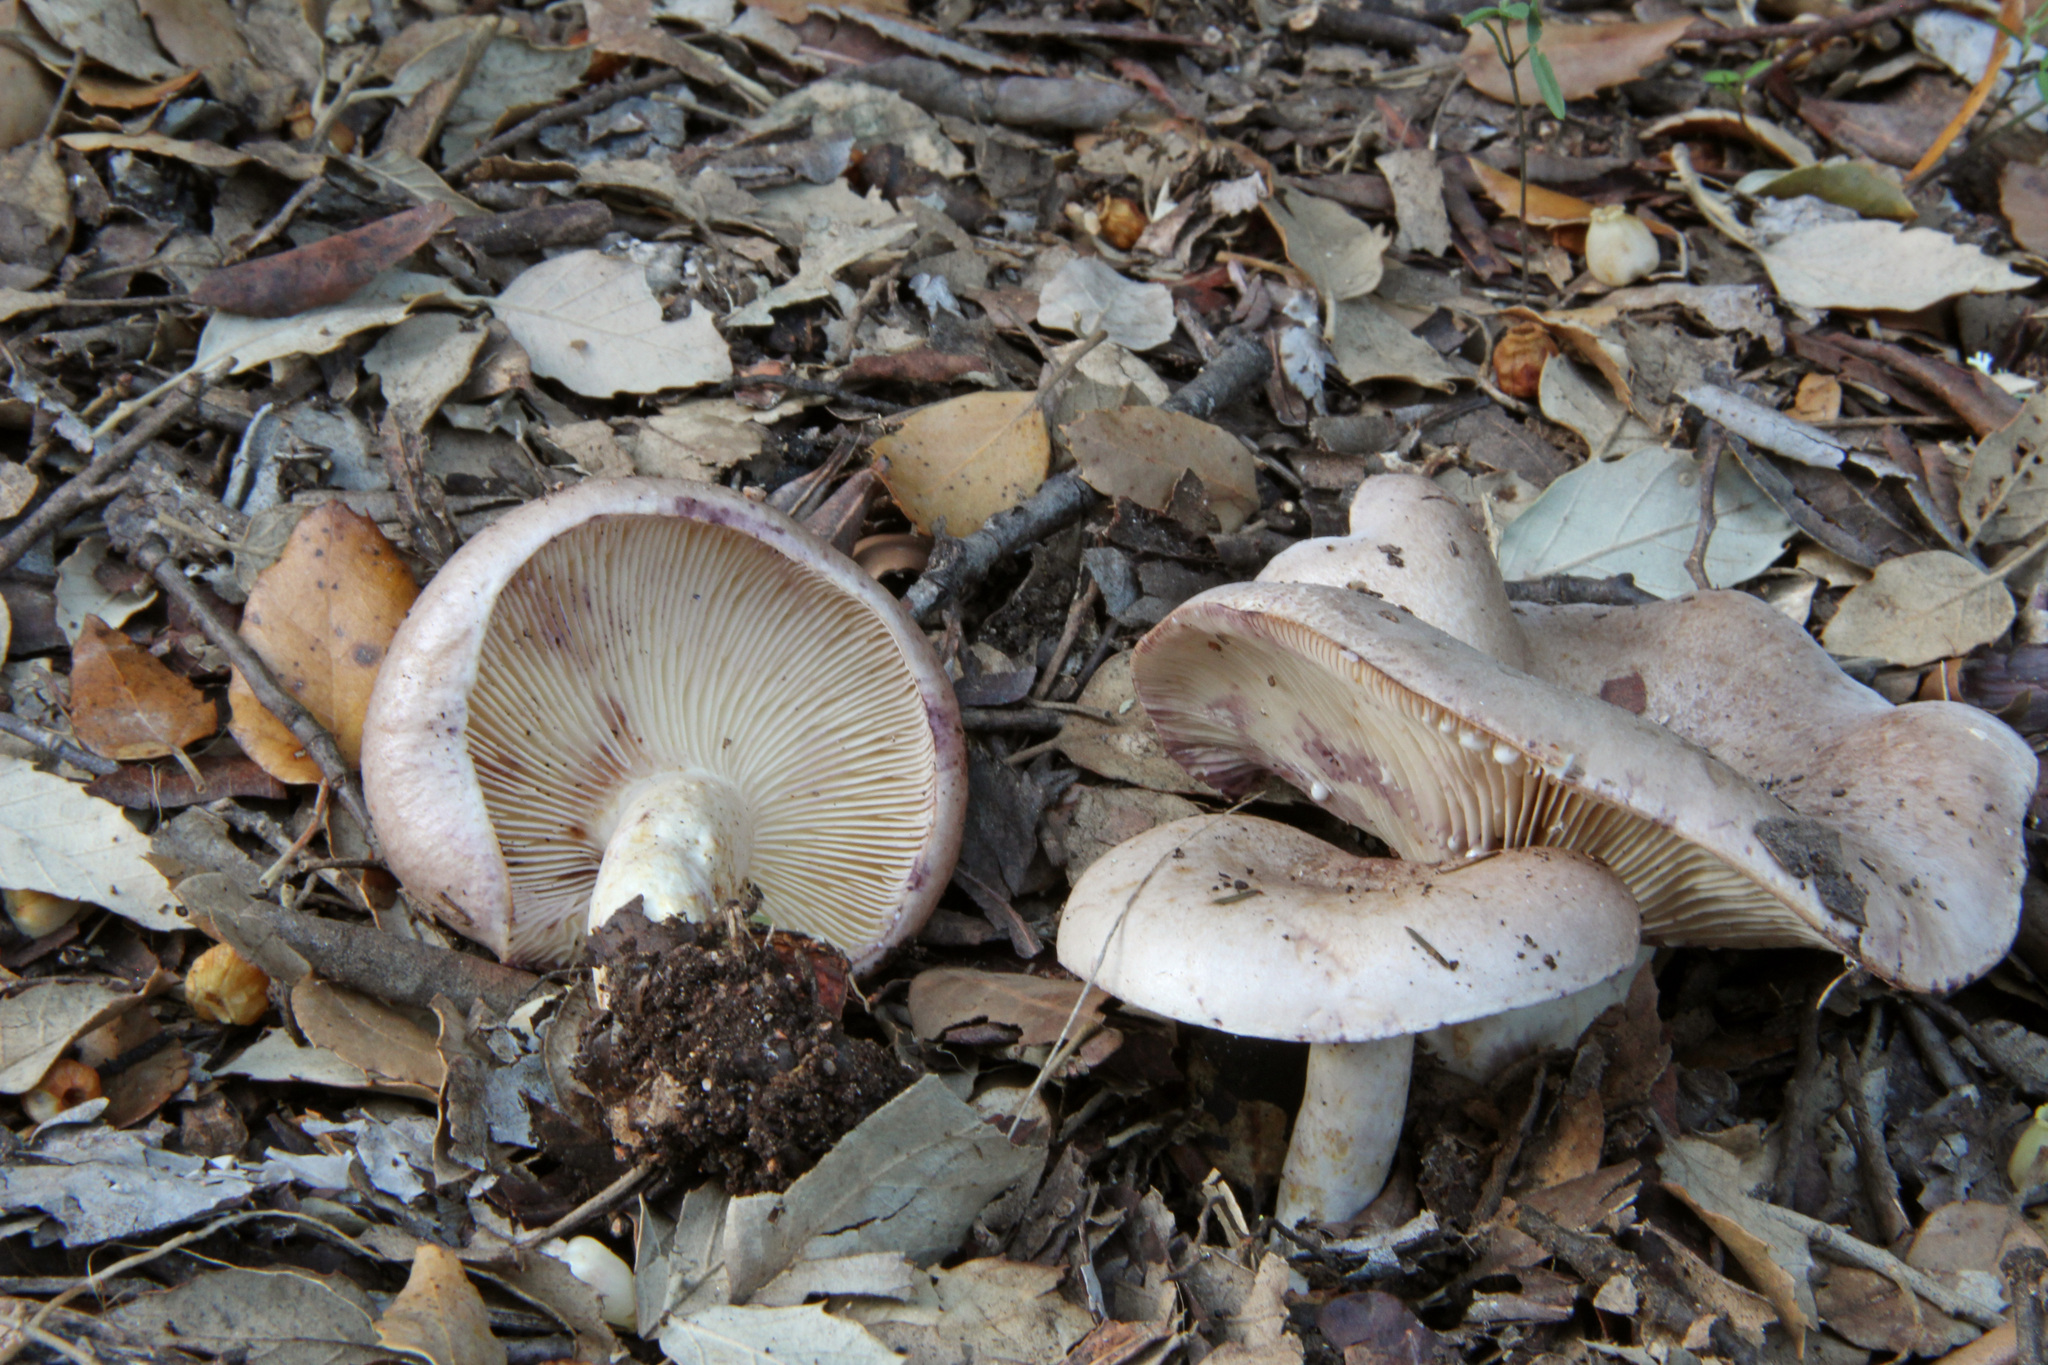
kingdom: Fungi
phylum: Basidiomycota
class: Agaricomycetes
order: Russulales
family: Russulaceae
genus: Lactarius
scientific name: Lactarius luridus
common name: Lurid milkcap
